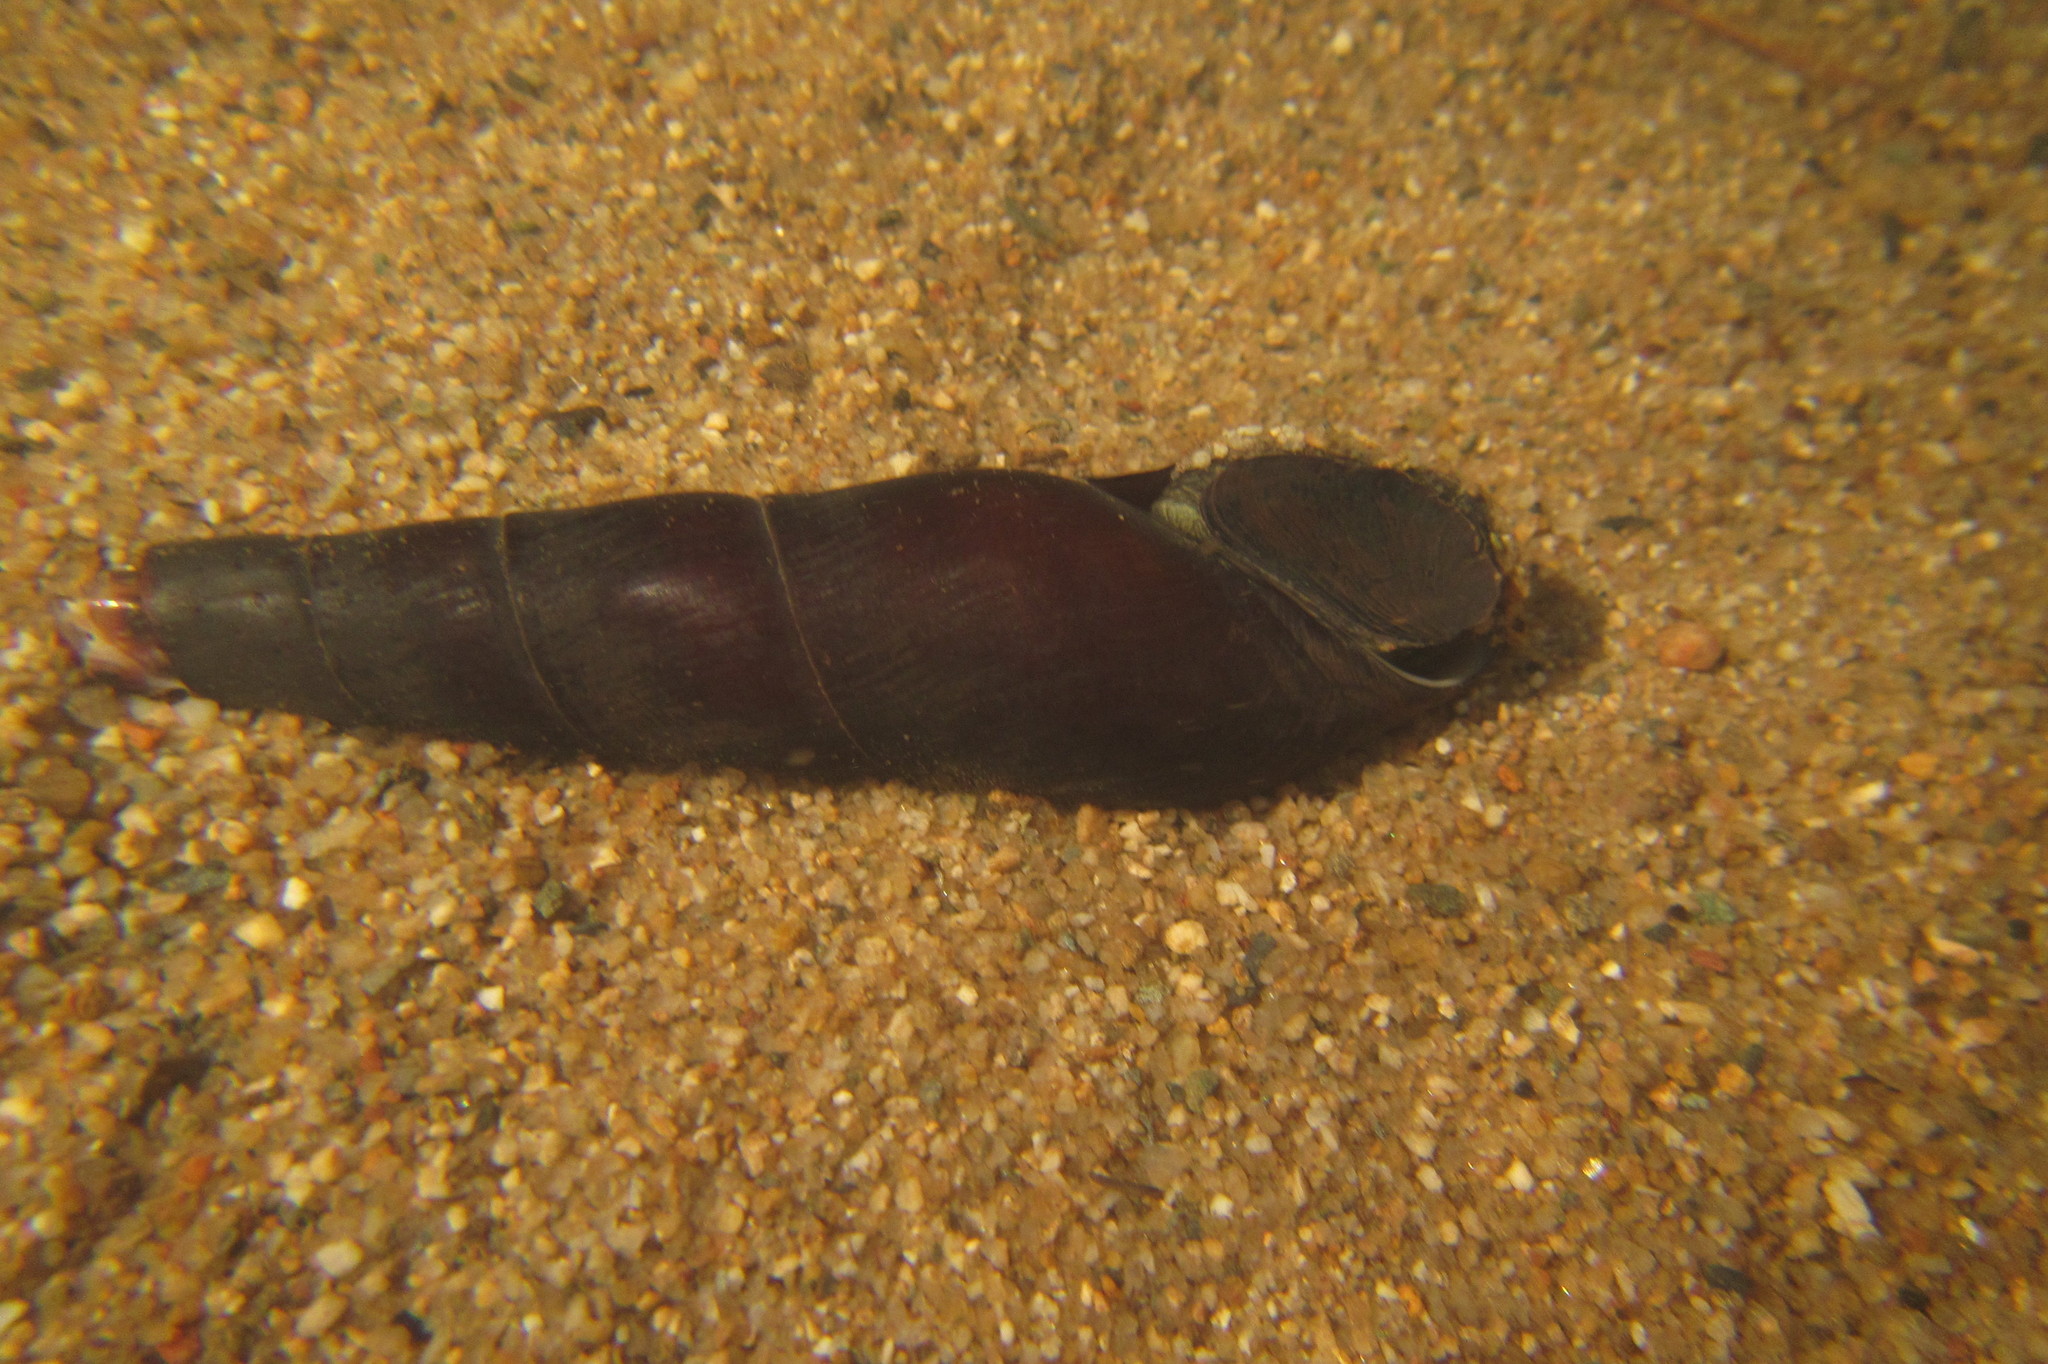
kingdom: Animalia
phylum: Mollusca
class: Gastropoda
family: Thiaridae
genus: Stenomelania
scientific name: Stenomelania aspirans
